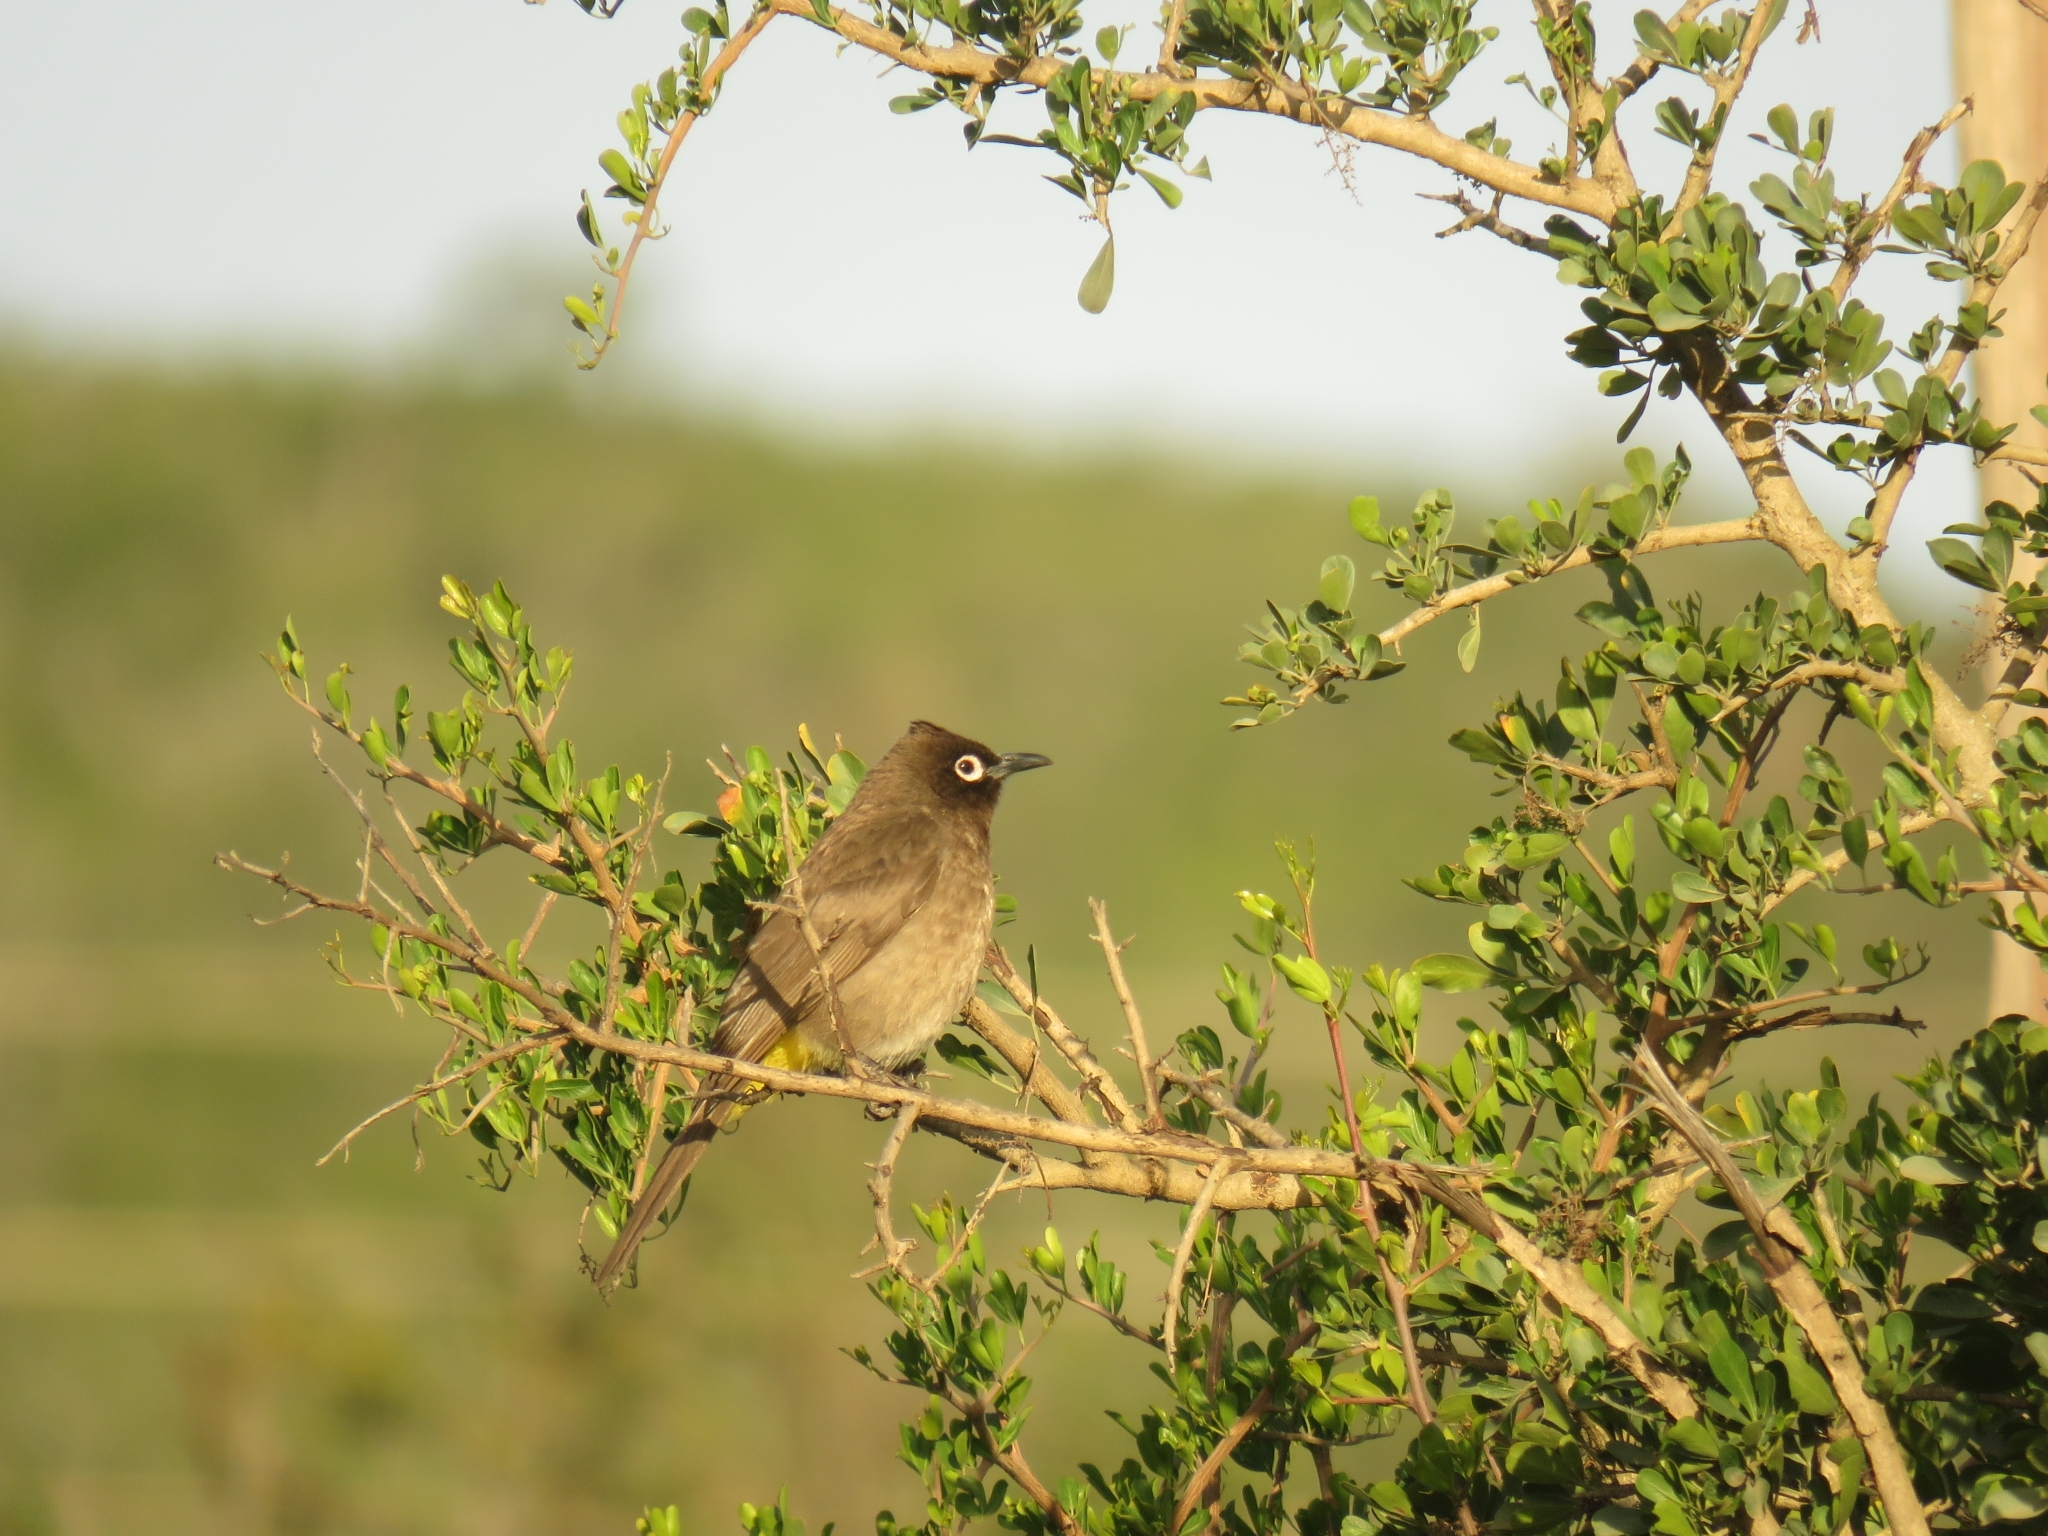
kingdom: Animalia
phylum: Chordata
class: Aves
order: Passeriformes
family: Pycnonotidae
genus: Pycnonotus
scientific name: Pycnonotus capensis
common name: Cape bulbul
